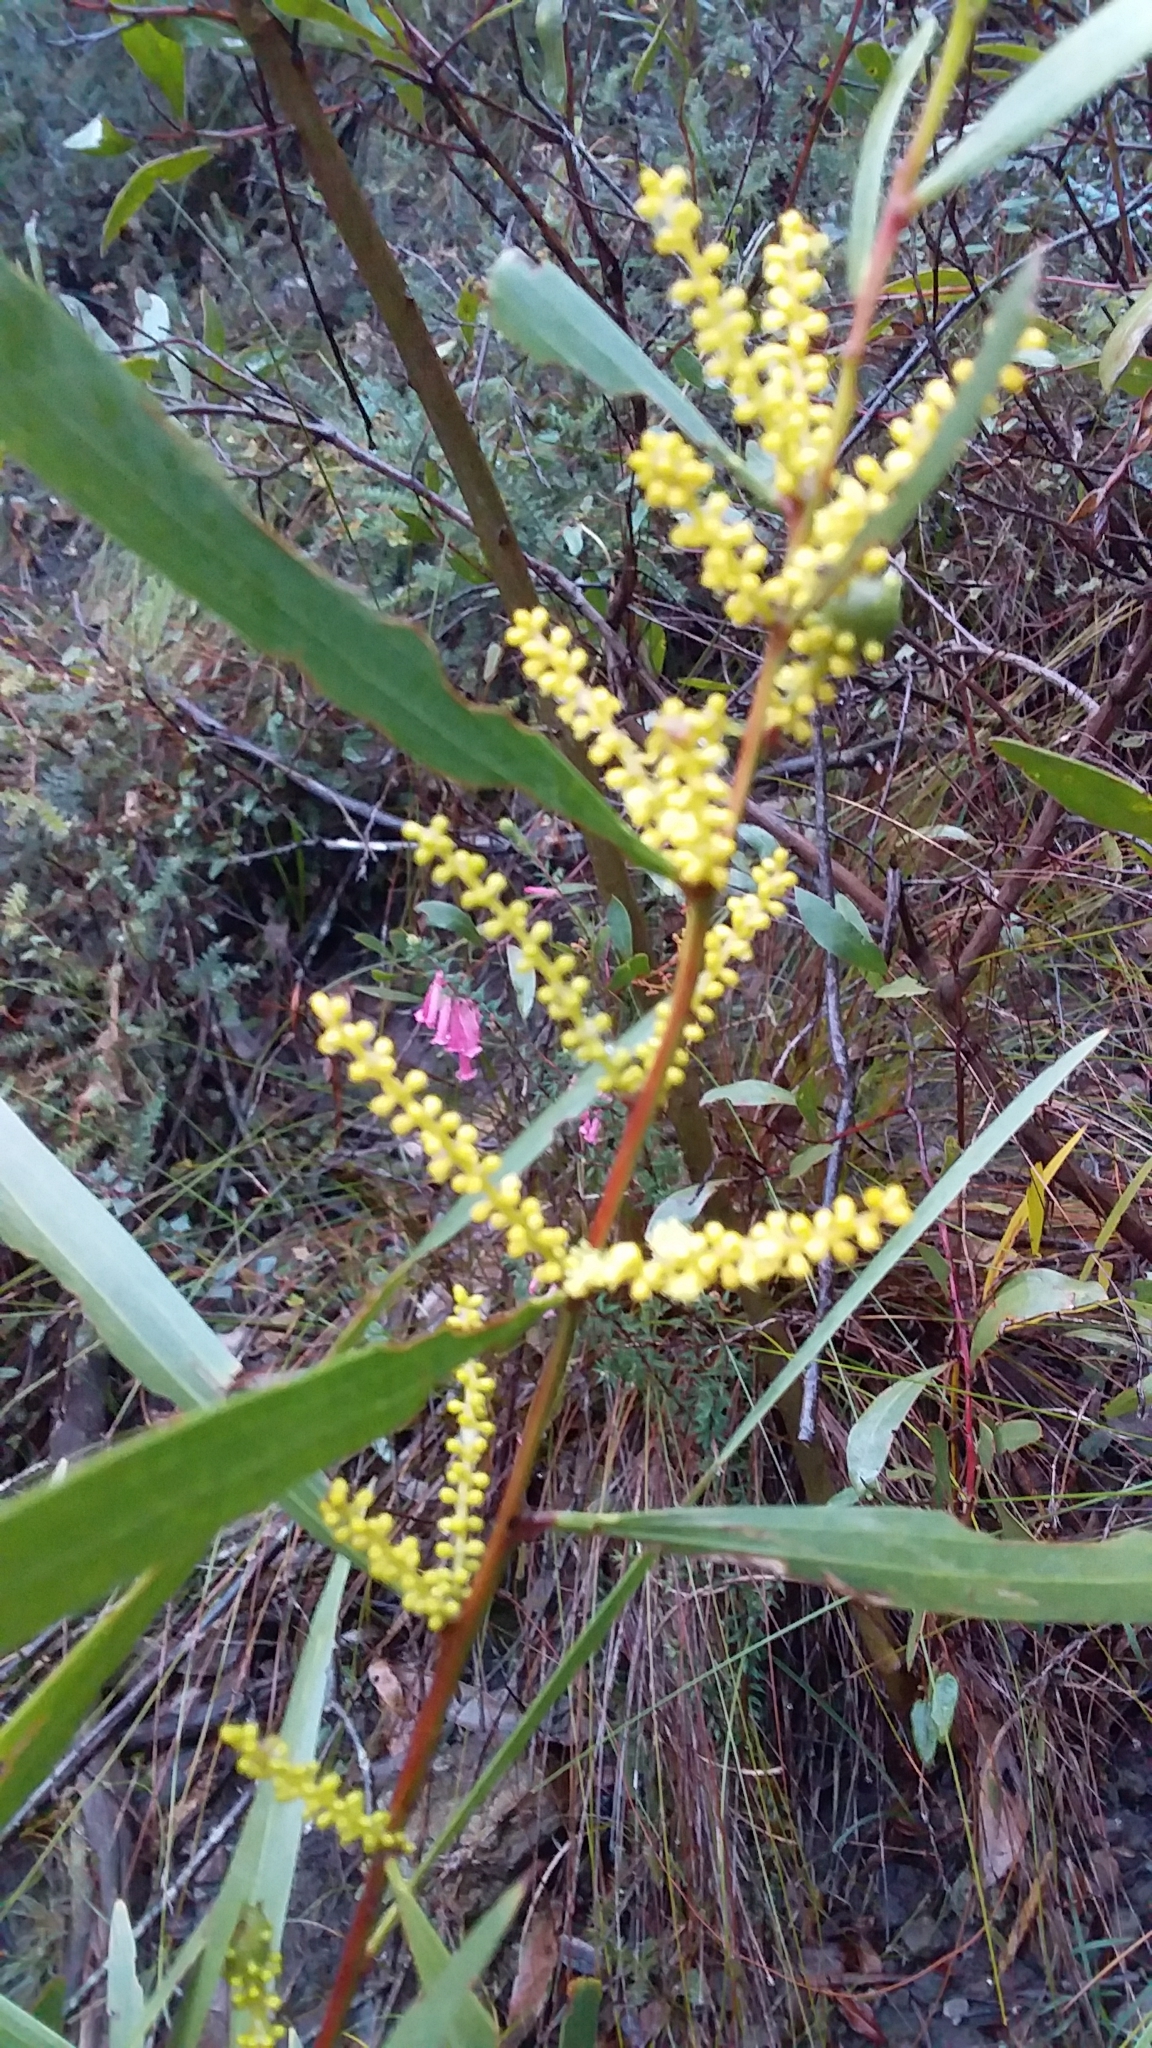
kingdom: Plantae
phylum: Tracheophyta
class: Magnoliopsida
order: Fabales
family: Fabaceae
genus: Acacia
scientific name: Acacia longifolia
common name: Sydney golden wattle
